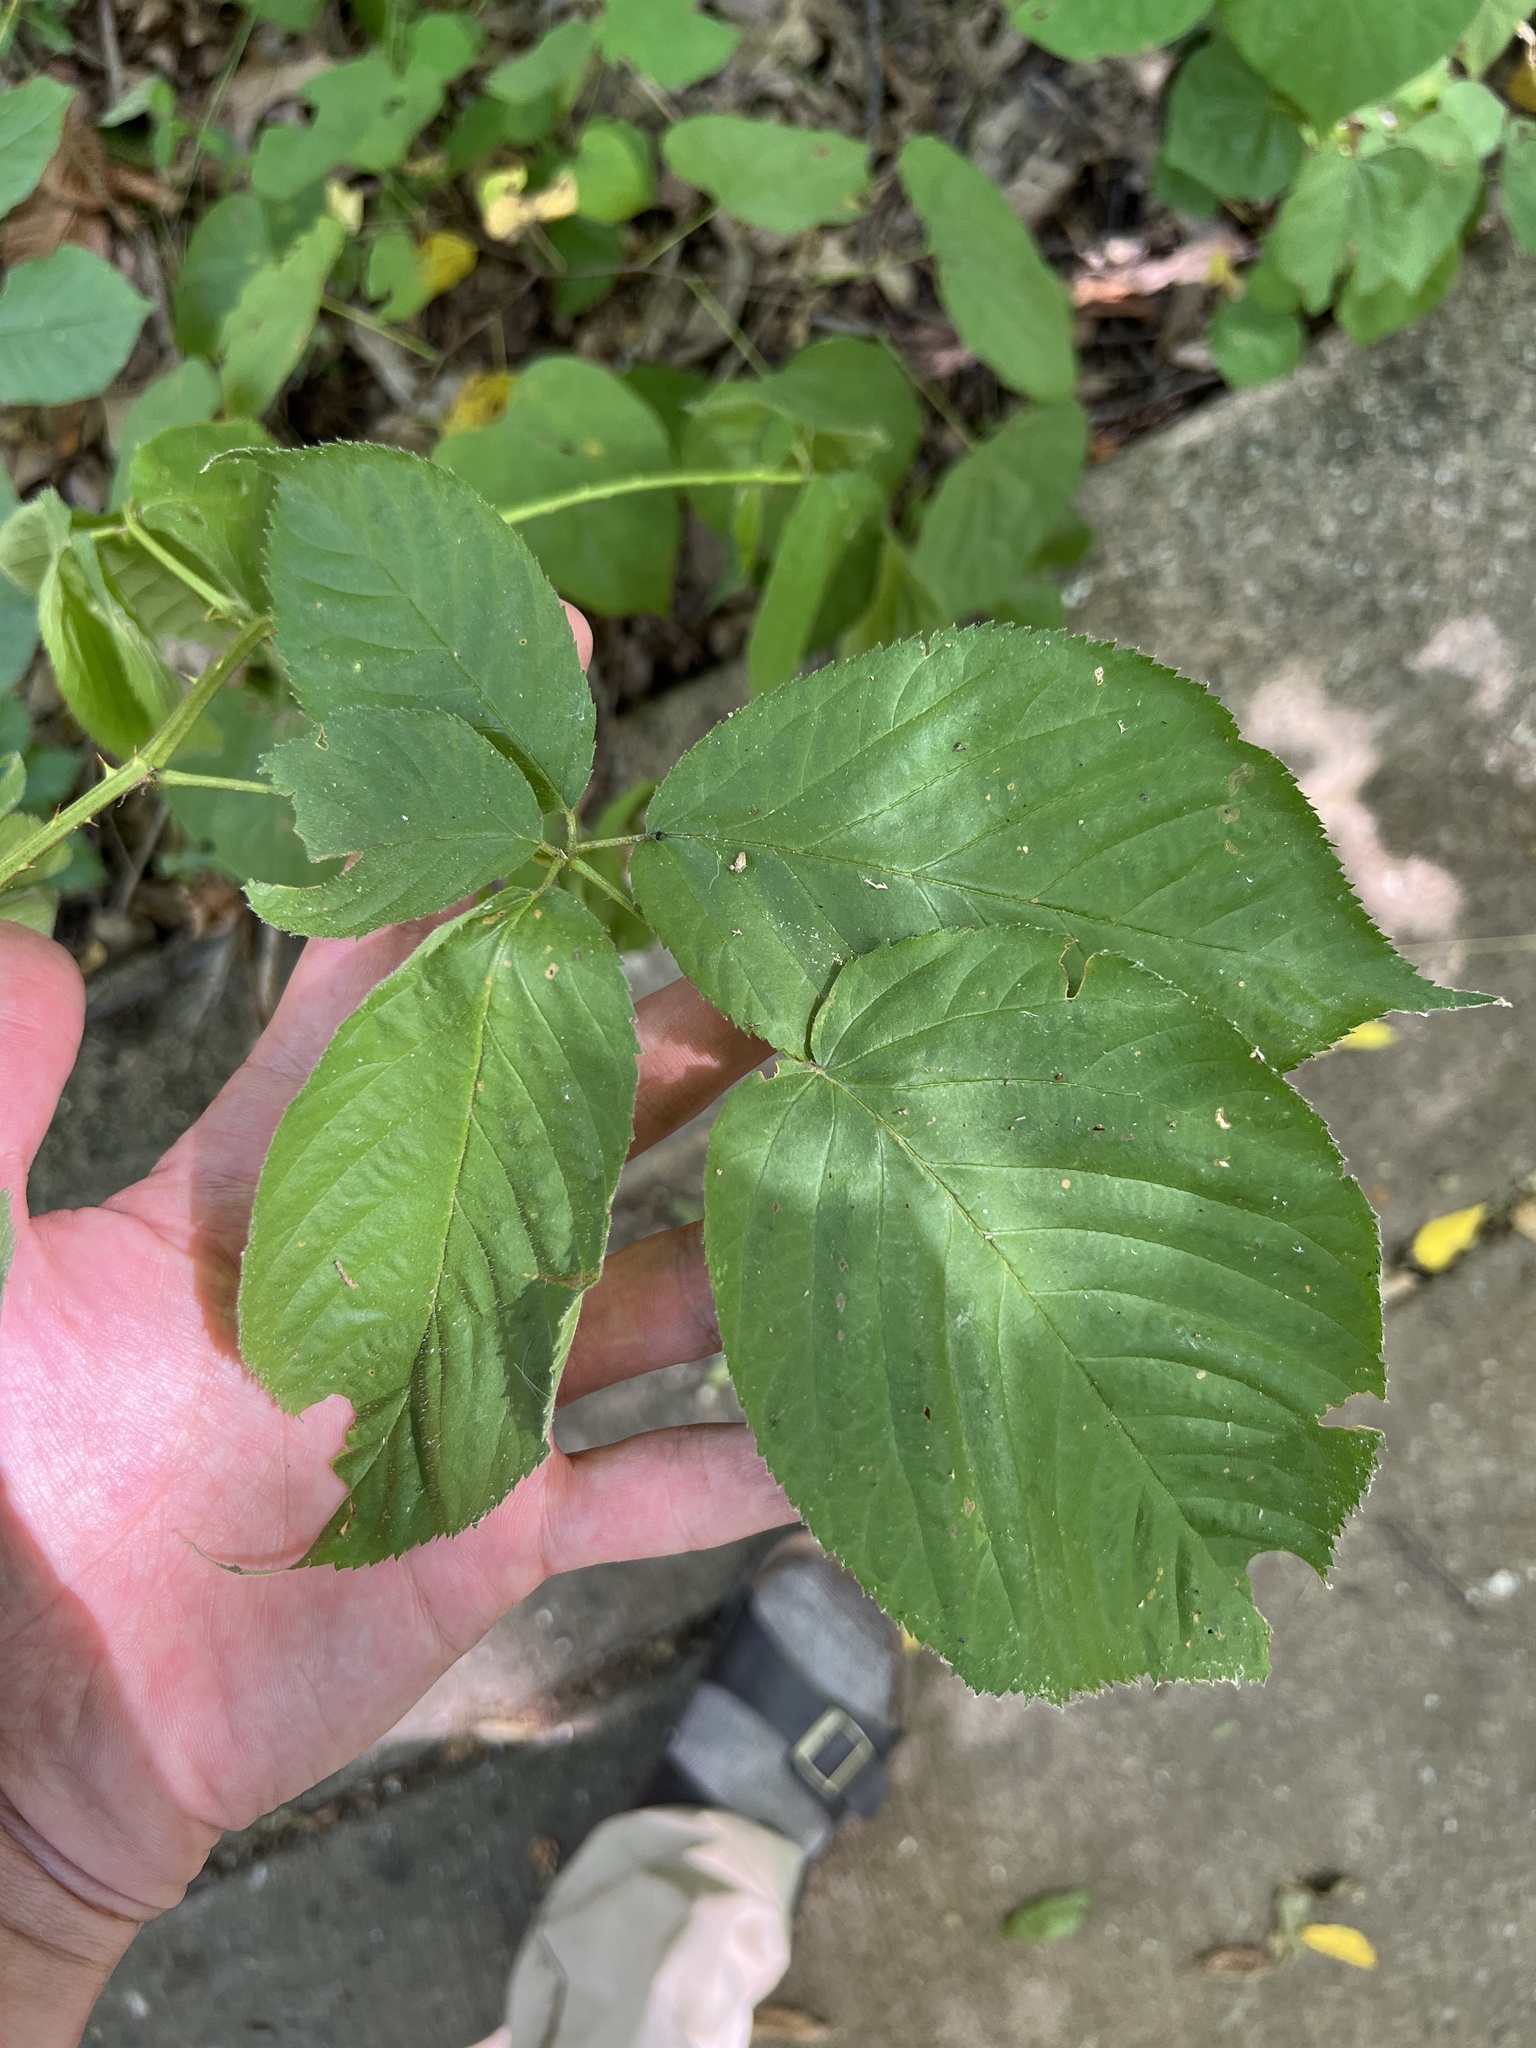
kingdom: Plantae
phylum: Tracheophyta
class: Magnoliopsida
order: Rosales
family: Rosaceae
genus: Rubus
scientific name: Rubus alumnus
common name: Kittatinny blackberry
